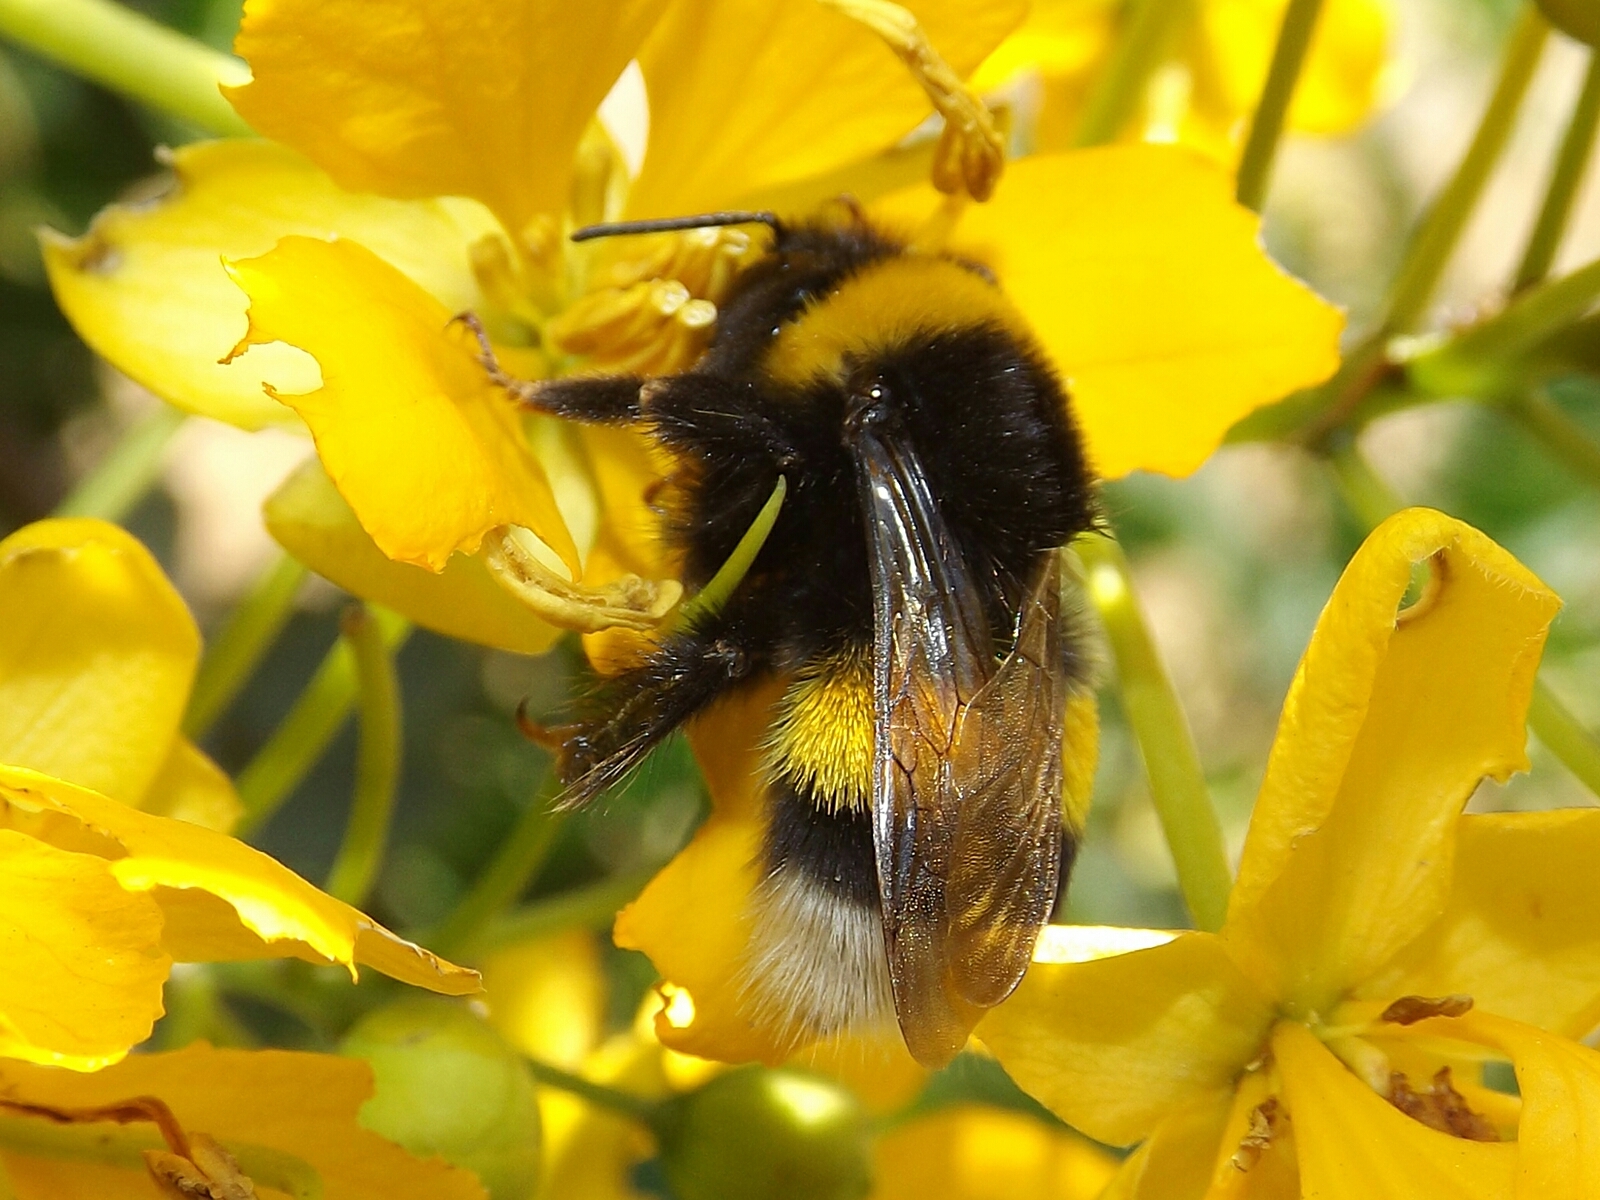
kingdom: Animalia
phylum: Arthropoda
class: Insecta
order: Hymenoptera
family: Apidae
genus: Bombus
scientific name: Bombus terrestris
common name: Buff-tailed bumblebee
